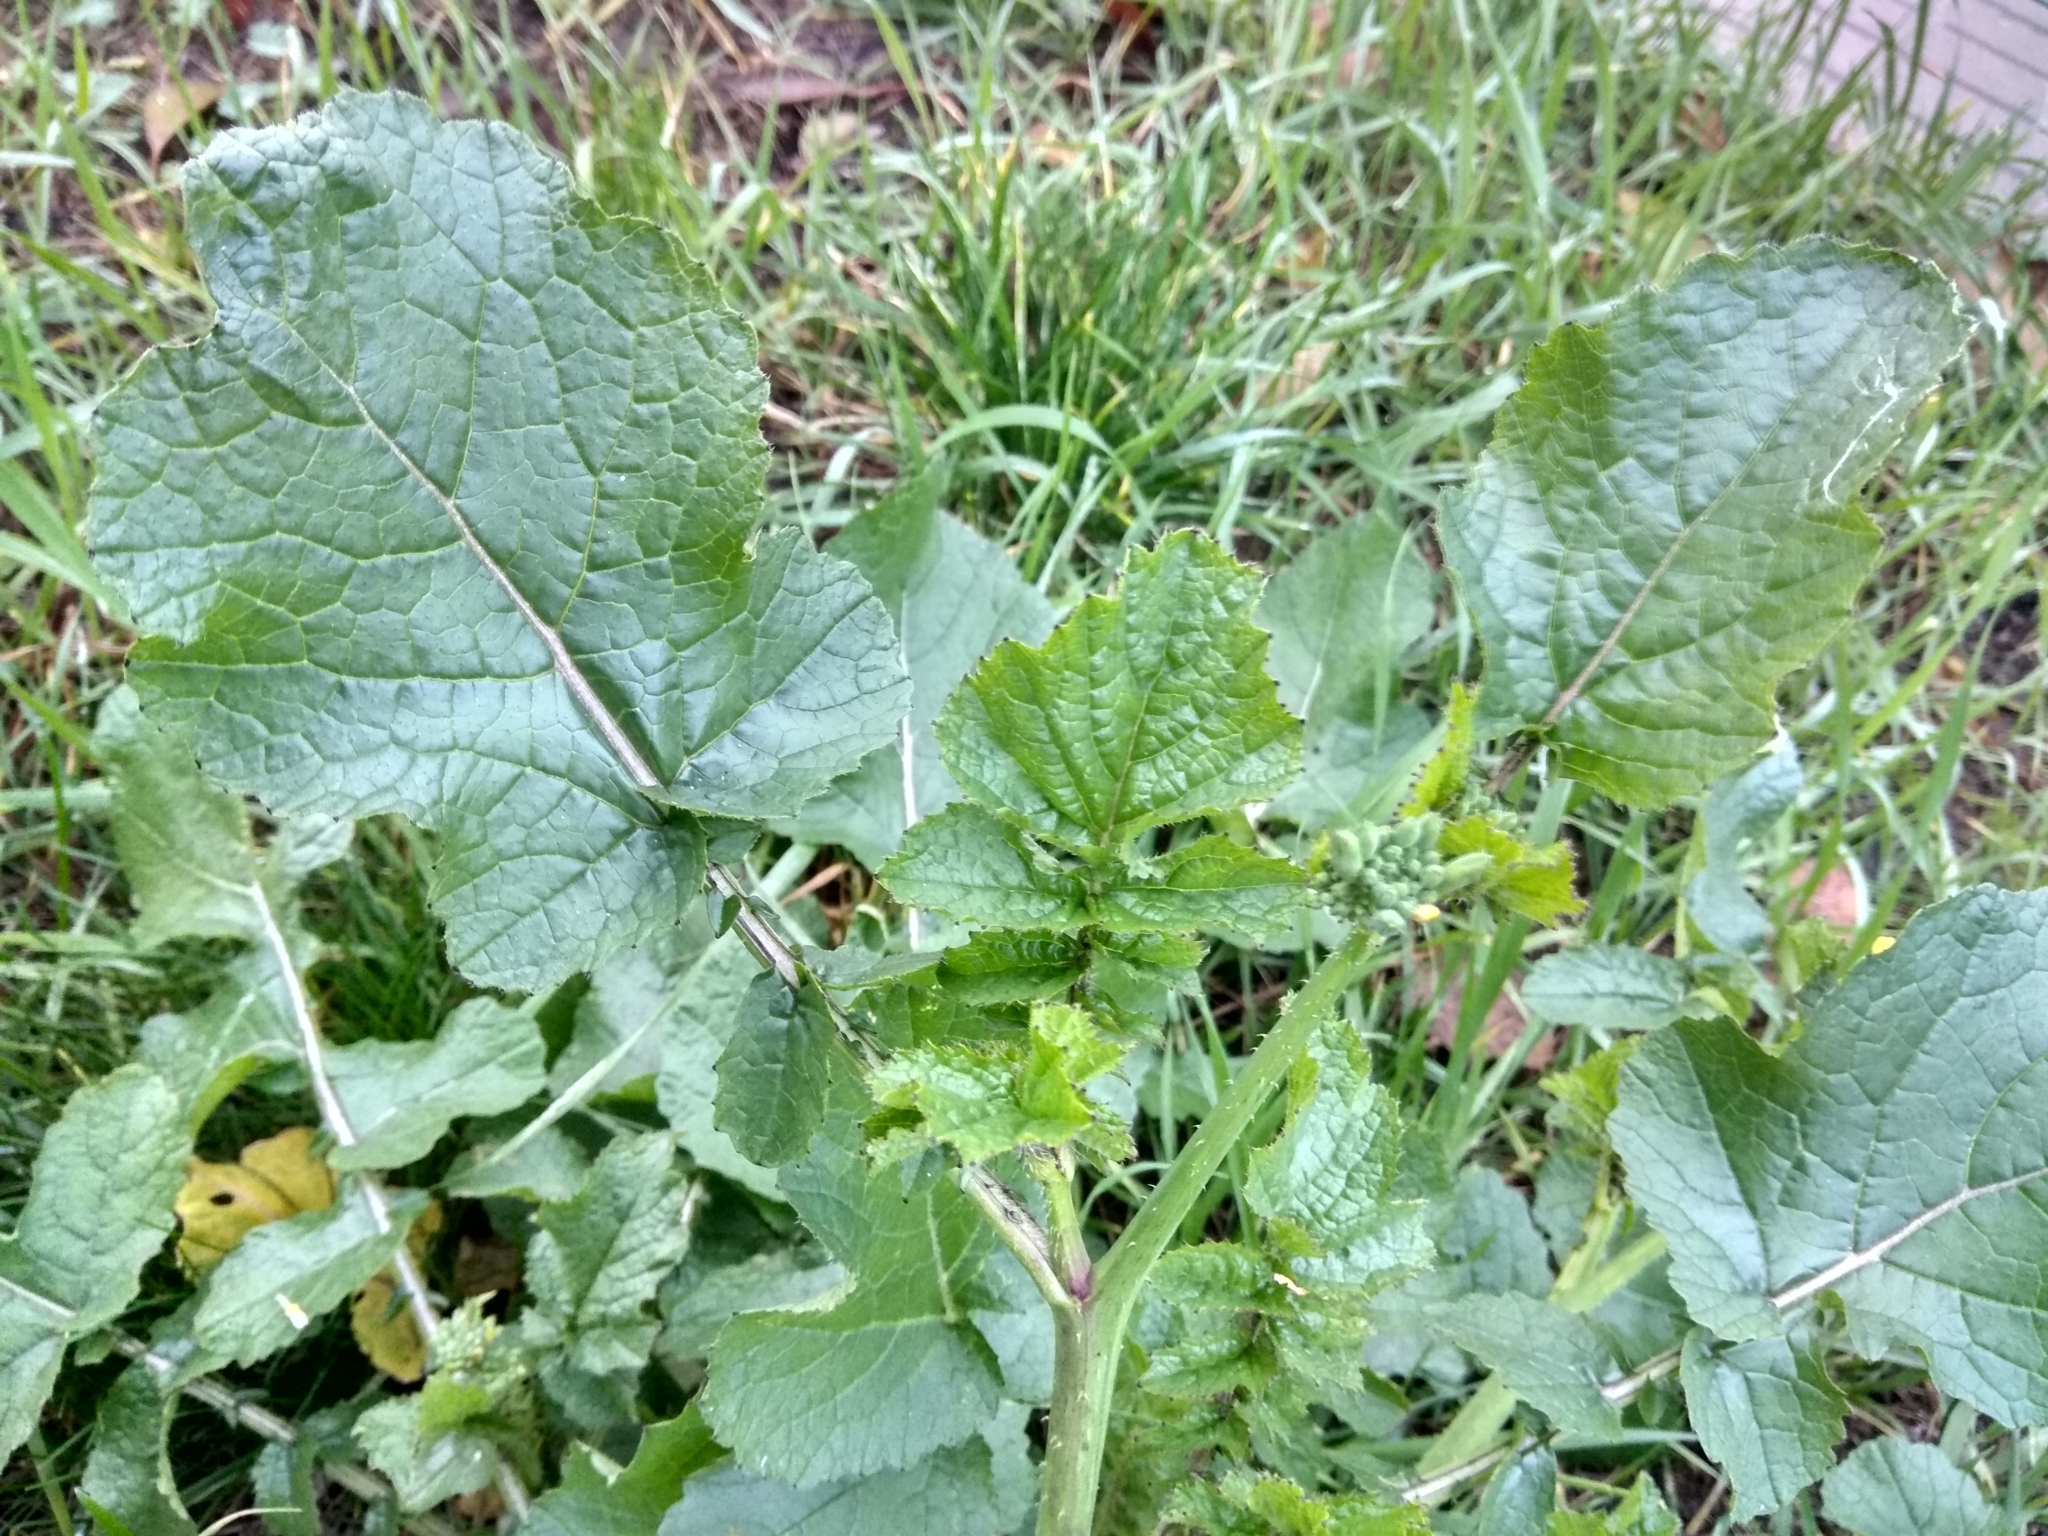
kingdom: Plantae
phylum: Tracheophyta
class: Magnoliopsida
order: Brassicales
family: Brassicaceae
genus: Raphanus
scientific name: Raphanus raphanistrum
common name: Wild radish
